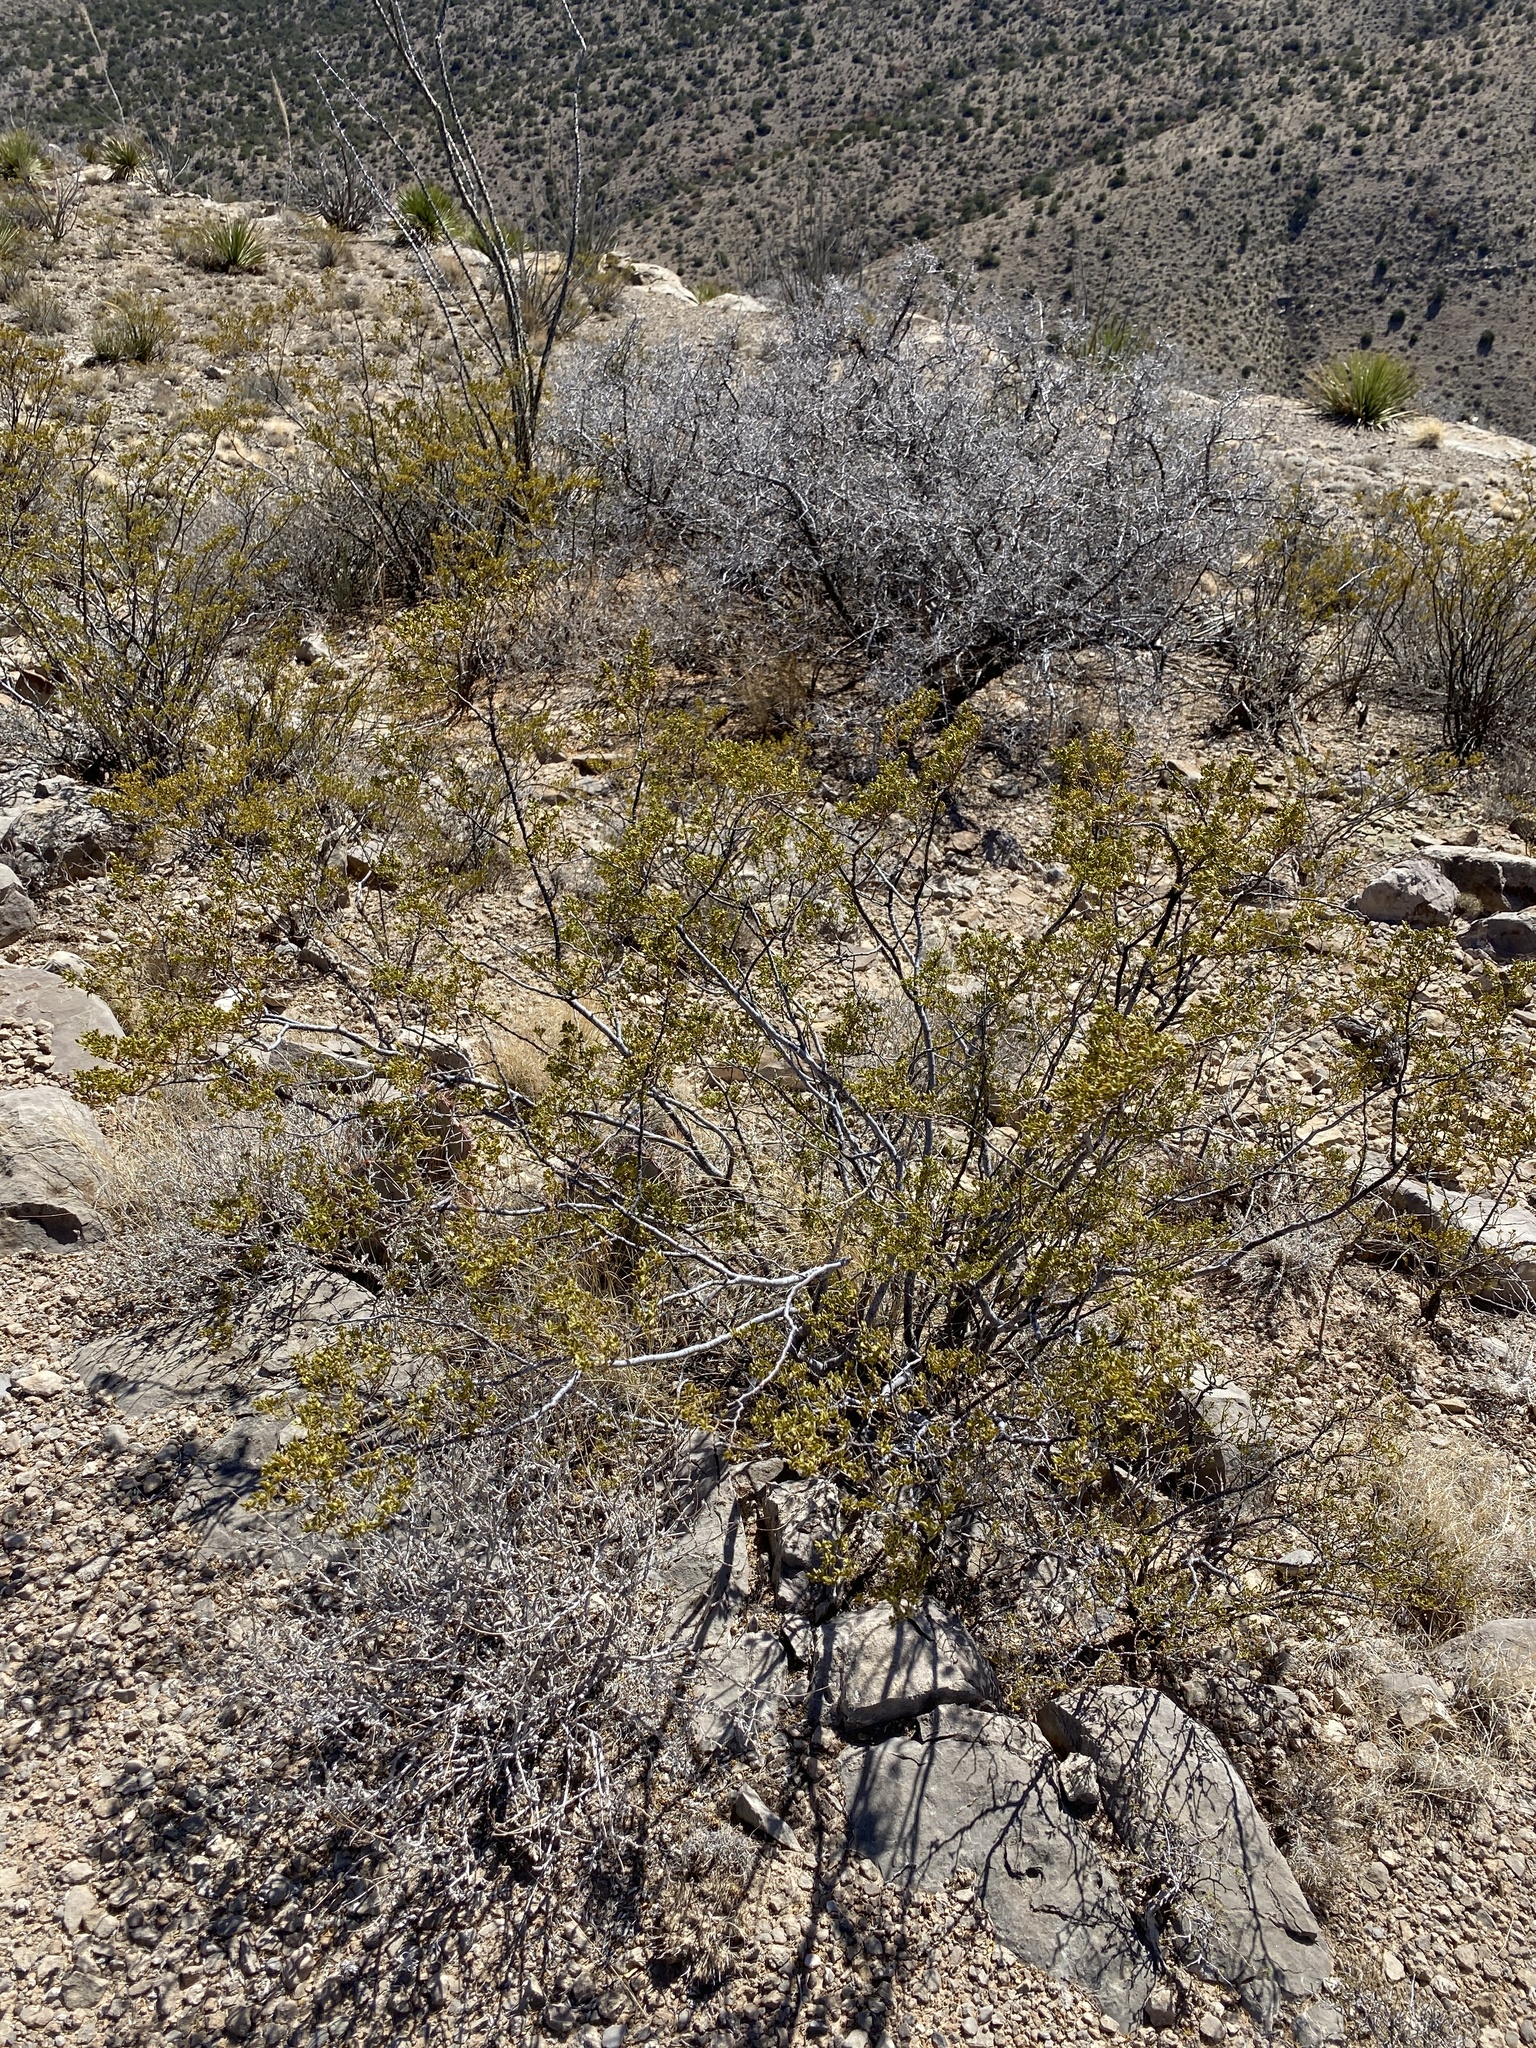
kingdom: Plantae
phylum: Tracheophyta
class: Magnoliopsida
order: Zygophyllales
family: Zygophyllaceae
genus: Larrea
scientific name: Larrea tridentata
